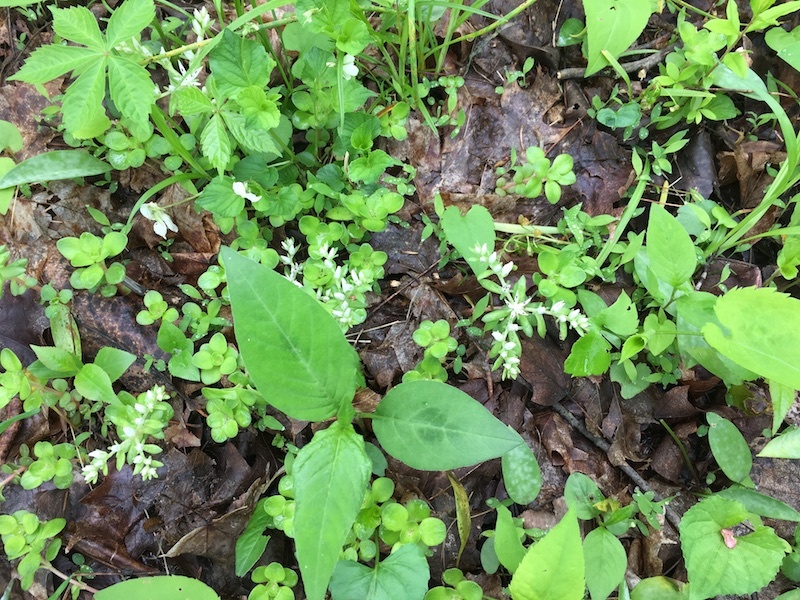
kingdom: Plantae
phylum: Tracheophyta
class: Magnoliopsida
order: Saxifragales
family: Crassulaceae
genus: Sedum
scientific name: Sedum ternatum
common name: Wild stonecrop
